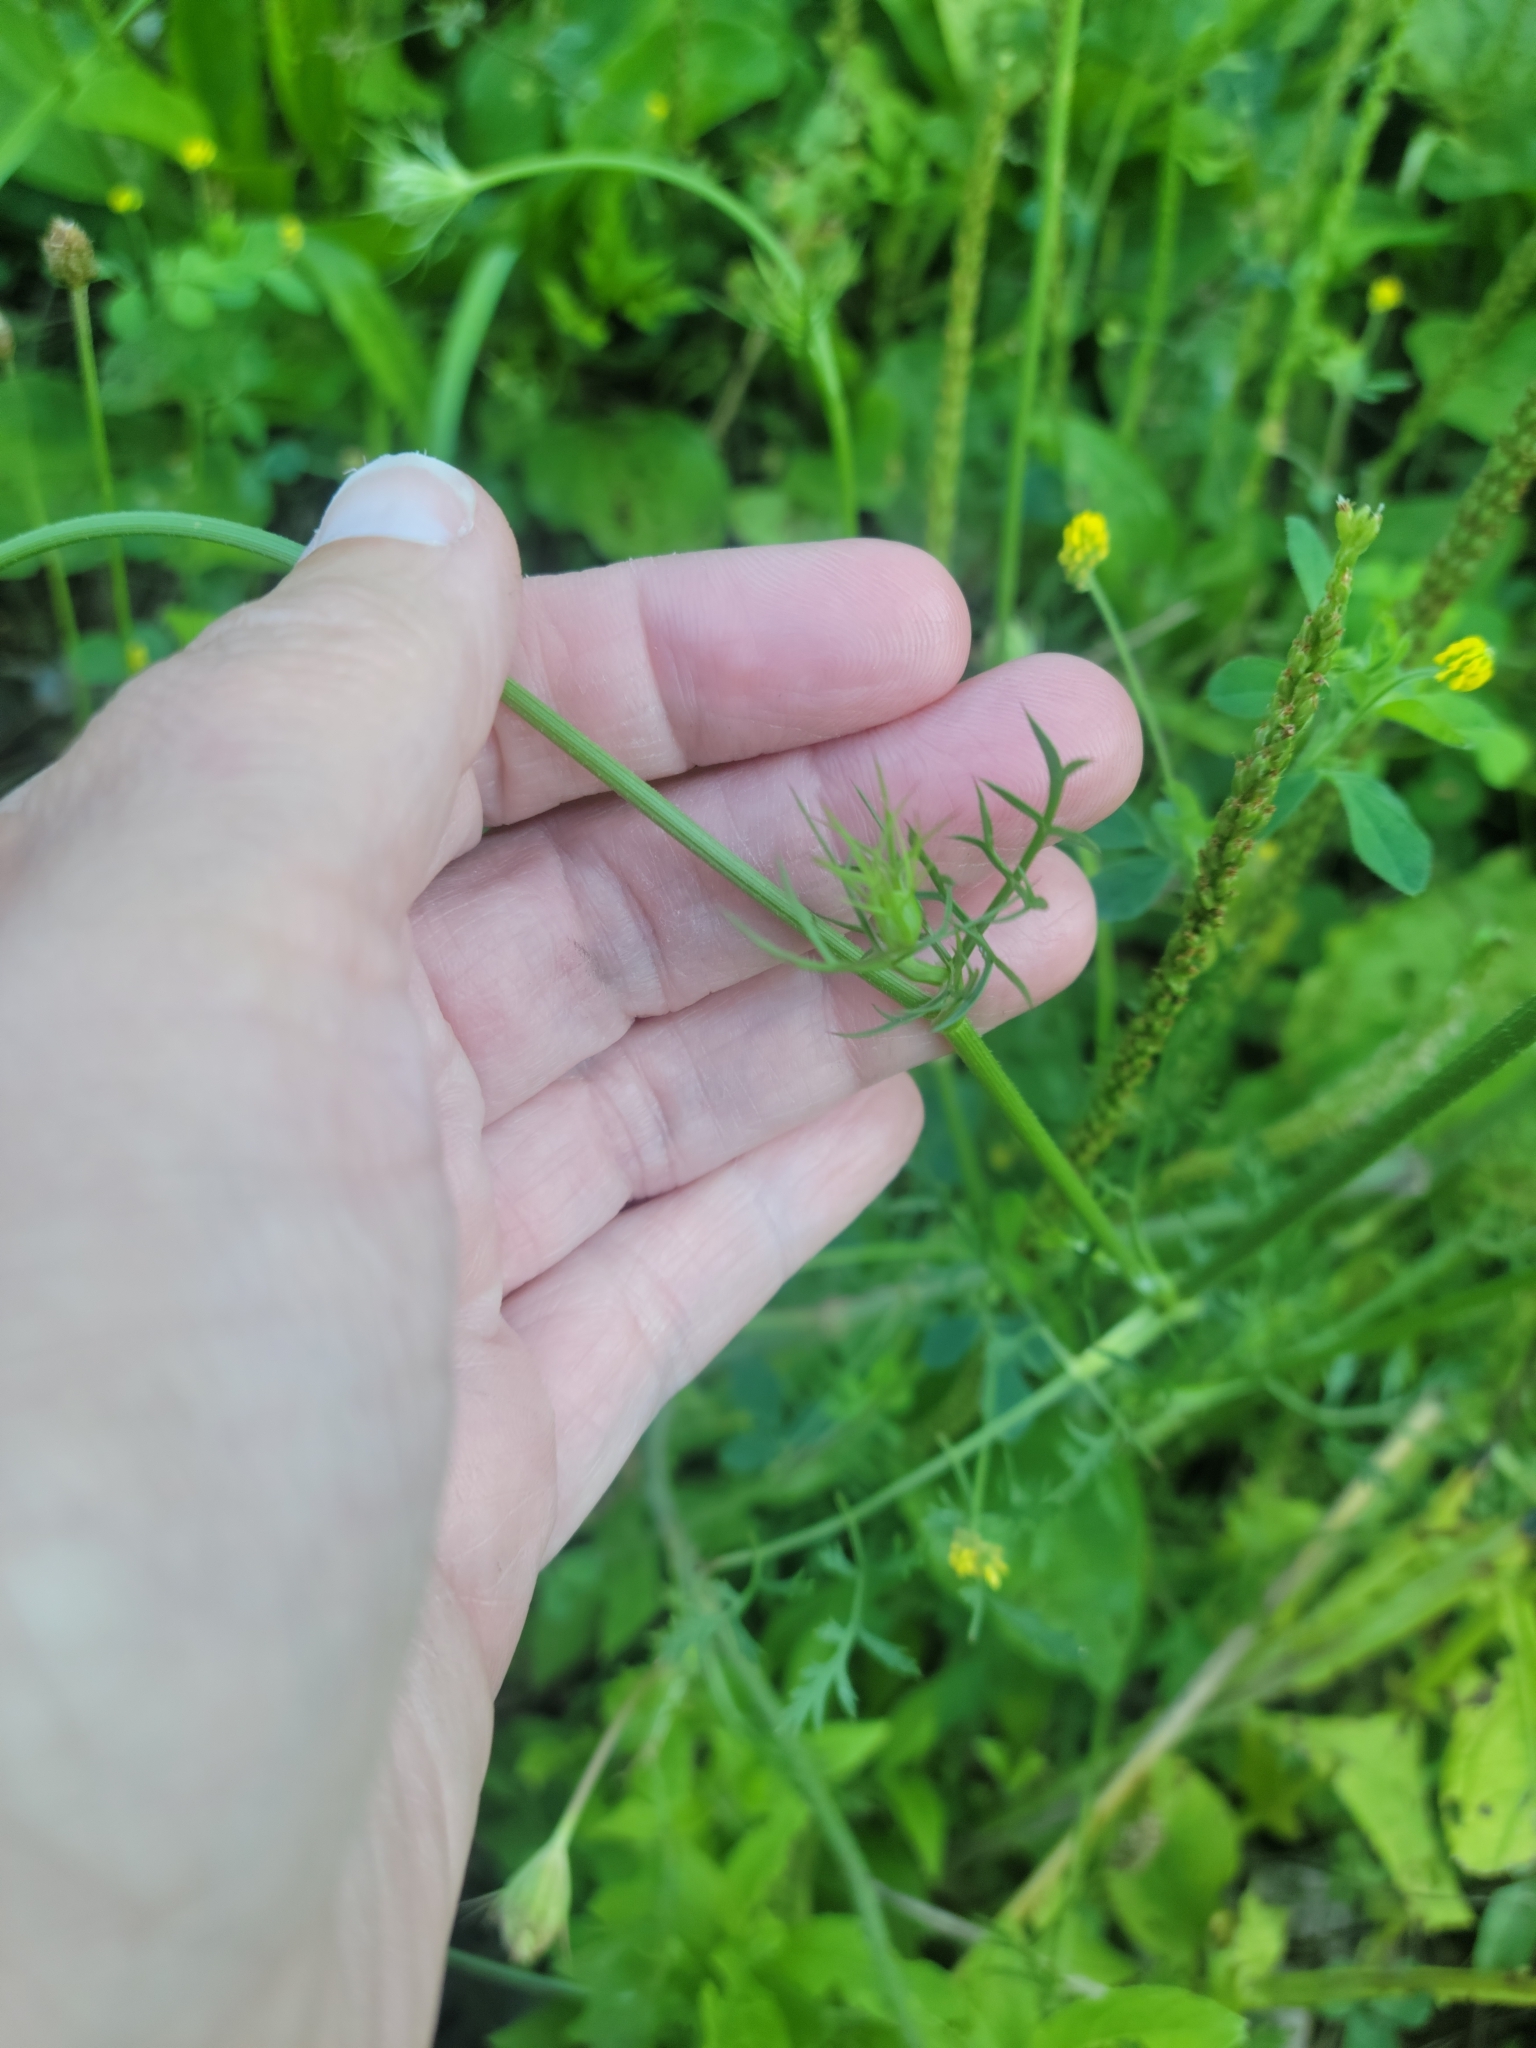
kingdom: Plantae
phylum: Tracheophyta
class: Magnoliopsida
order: Apiales
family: Apiaceae
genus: Daucus
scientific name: Daucus carota
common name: Wild carrot
